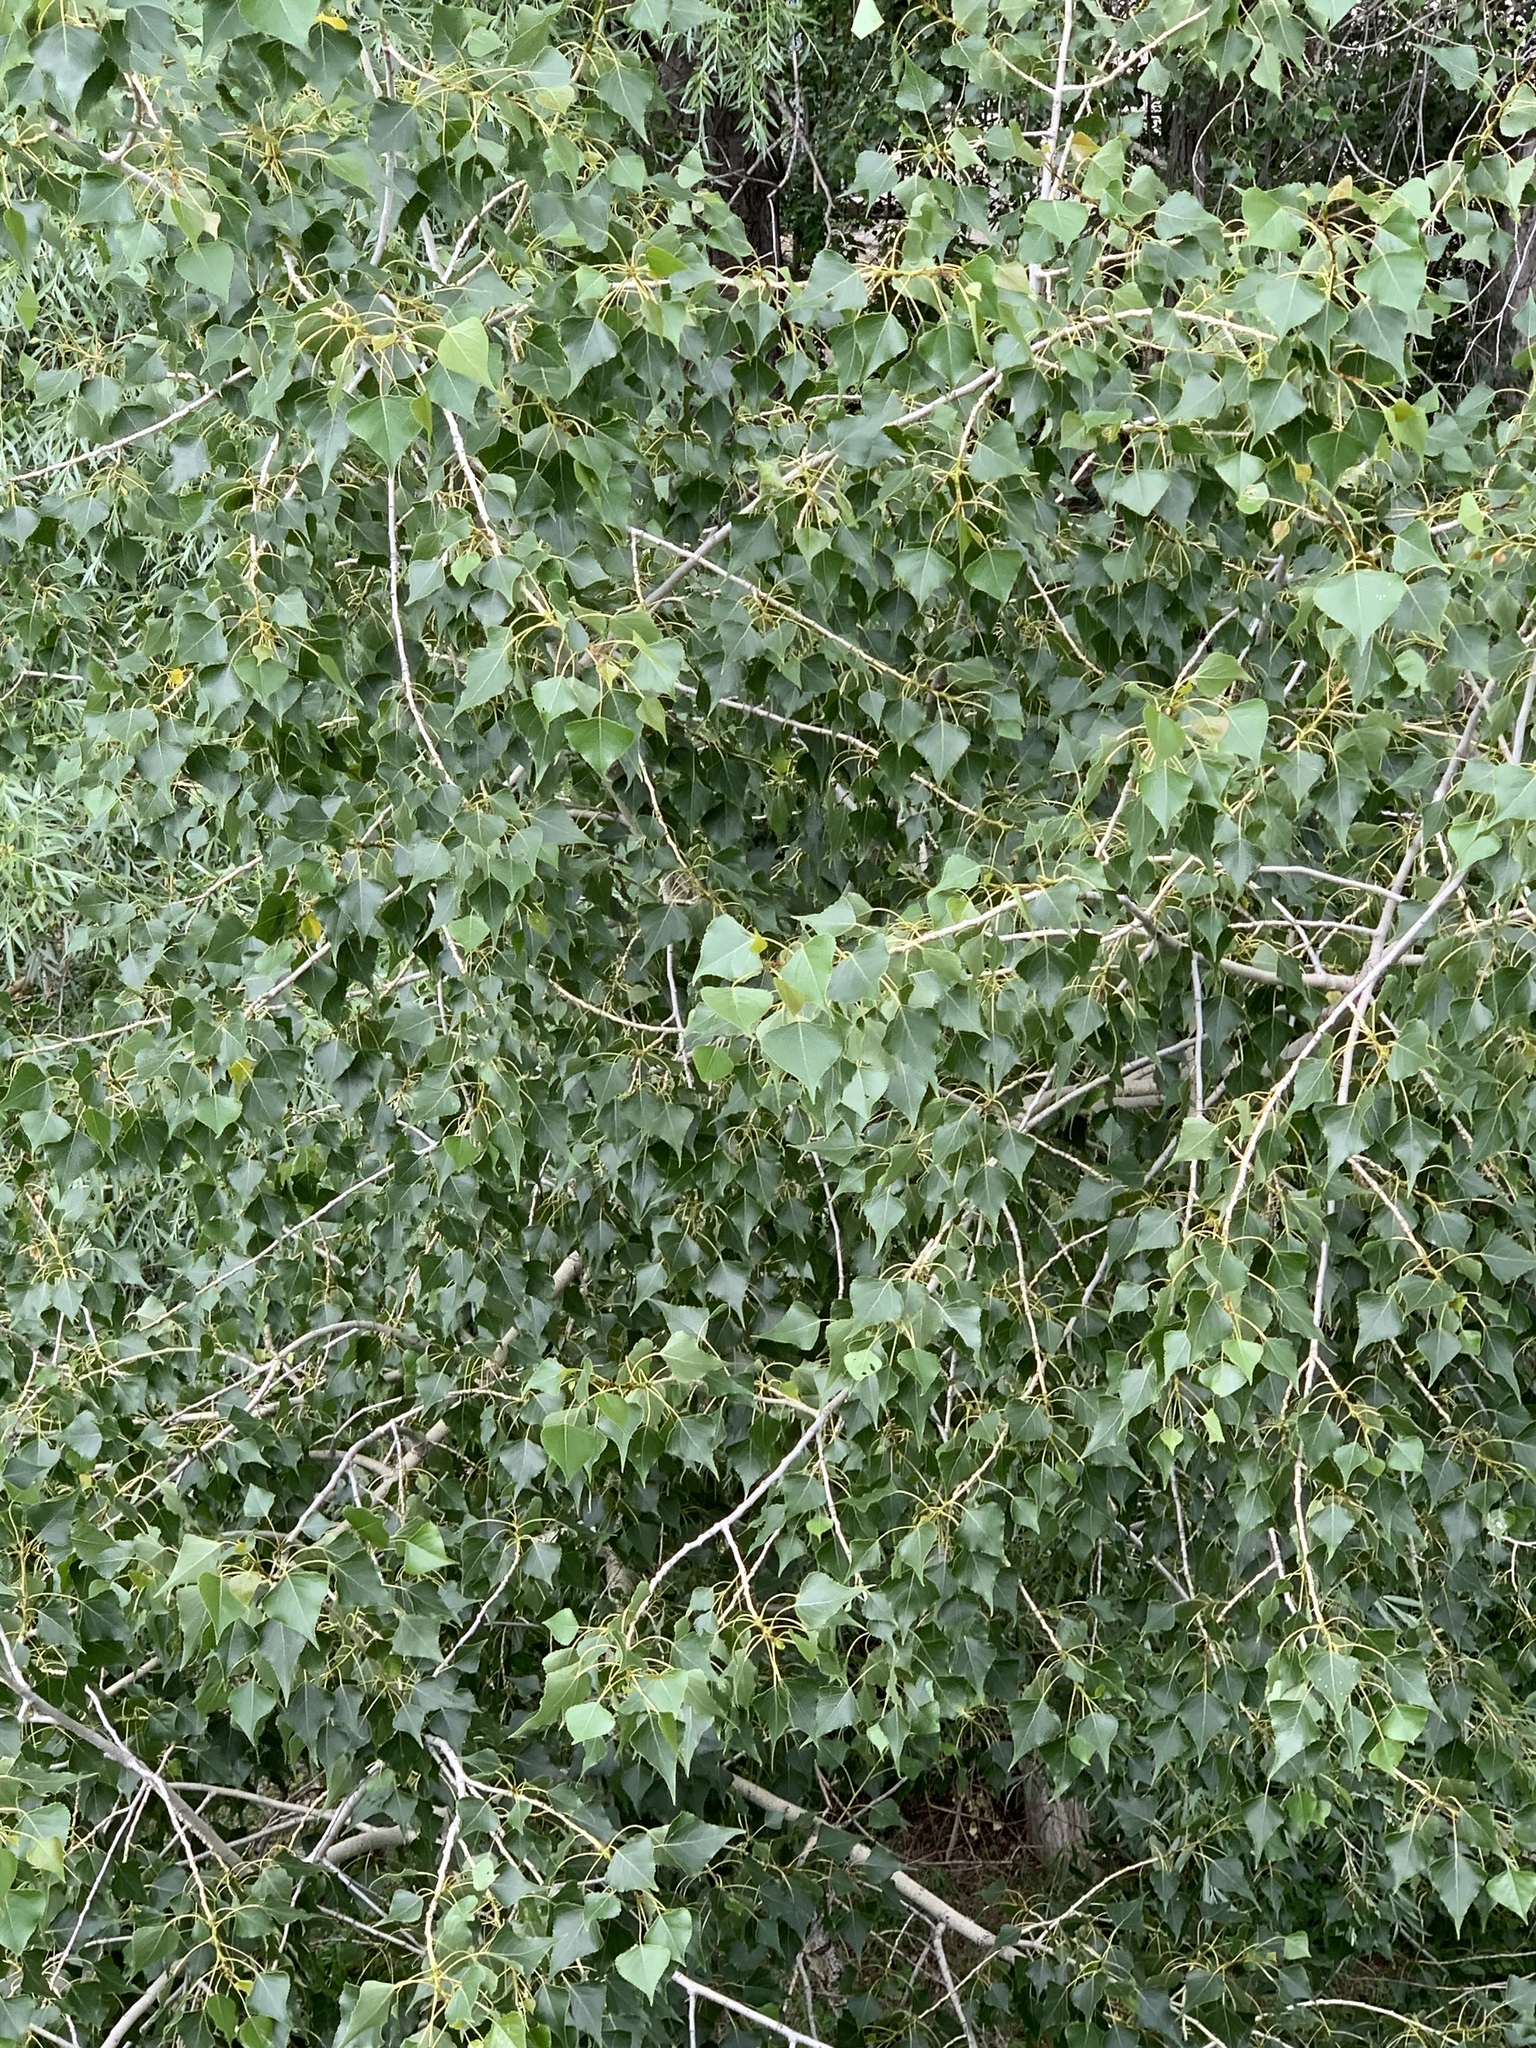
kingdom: Plantae
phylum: Tracheophyta
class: Magnoliopsida
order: Malpighiales
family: Salicaceae
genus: Populus
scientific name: Populus nigra
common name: Black poplar
